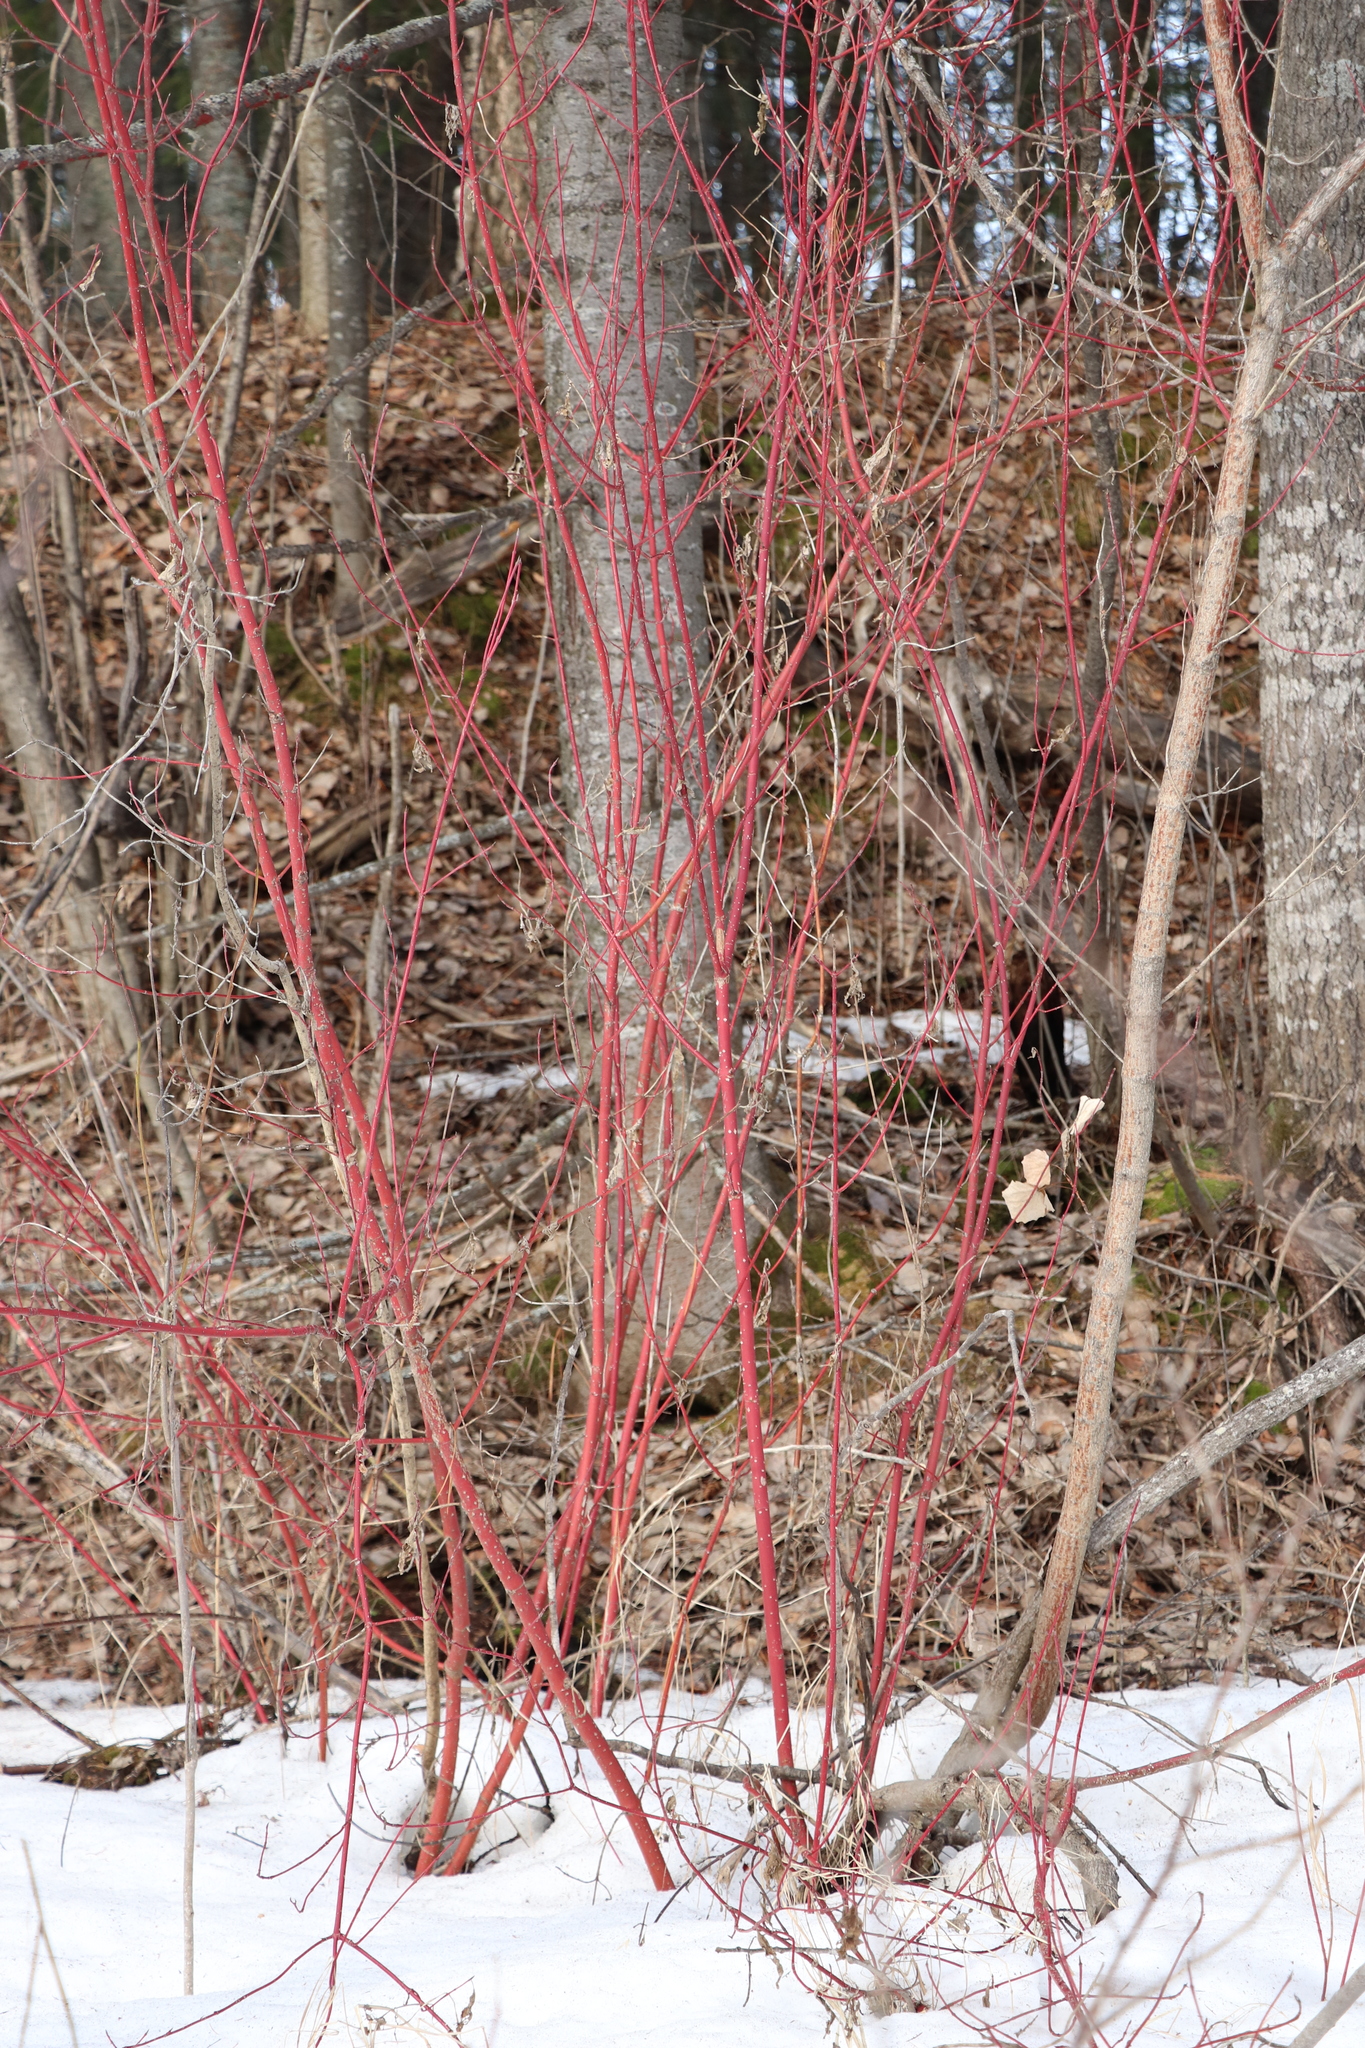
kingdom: Plantae
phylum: Tracheophyta
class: Magnoliopsida
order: Cornales
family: Cornaceae
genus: Cornus
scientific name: Cornus alba
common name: White dogwood
